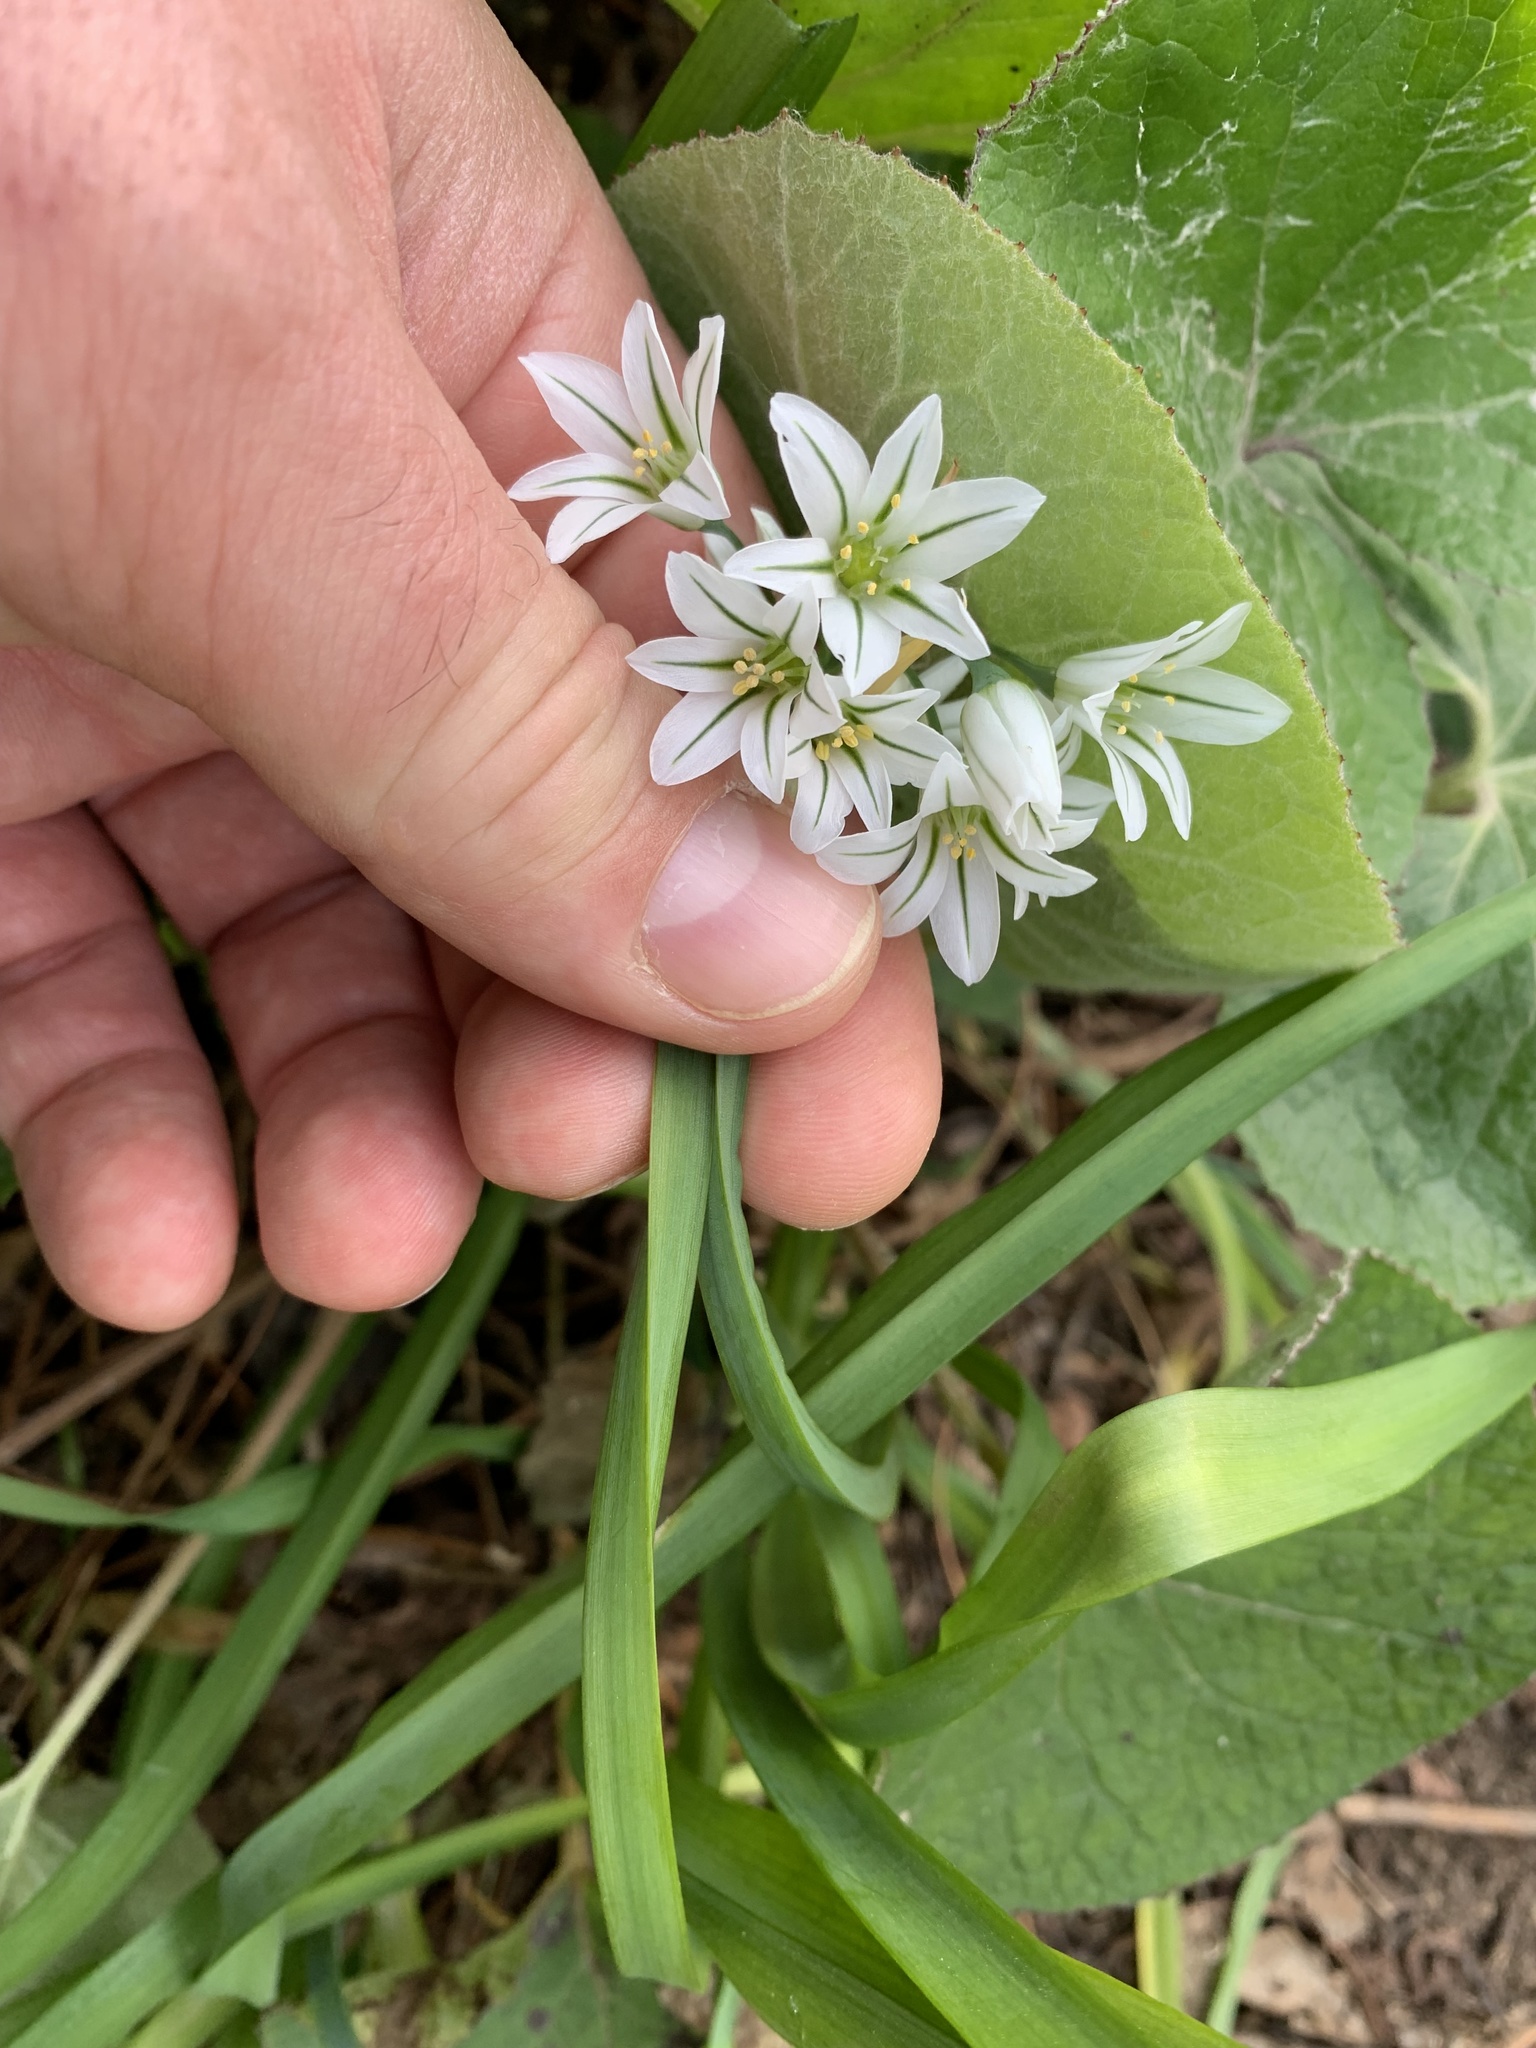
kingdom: Plantae
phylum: Tracheophyta
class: Liliopsida
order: Asparagales
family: Amaryllidaceae
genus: Allium
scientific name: Allium triquetrum
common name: Three-cornered garlic
